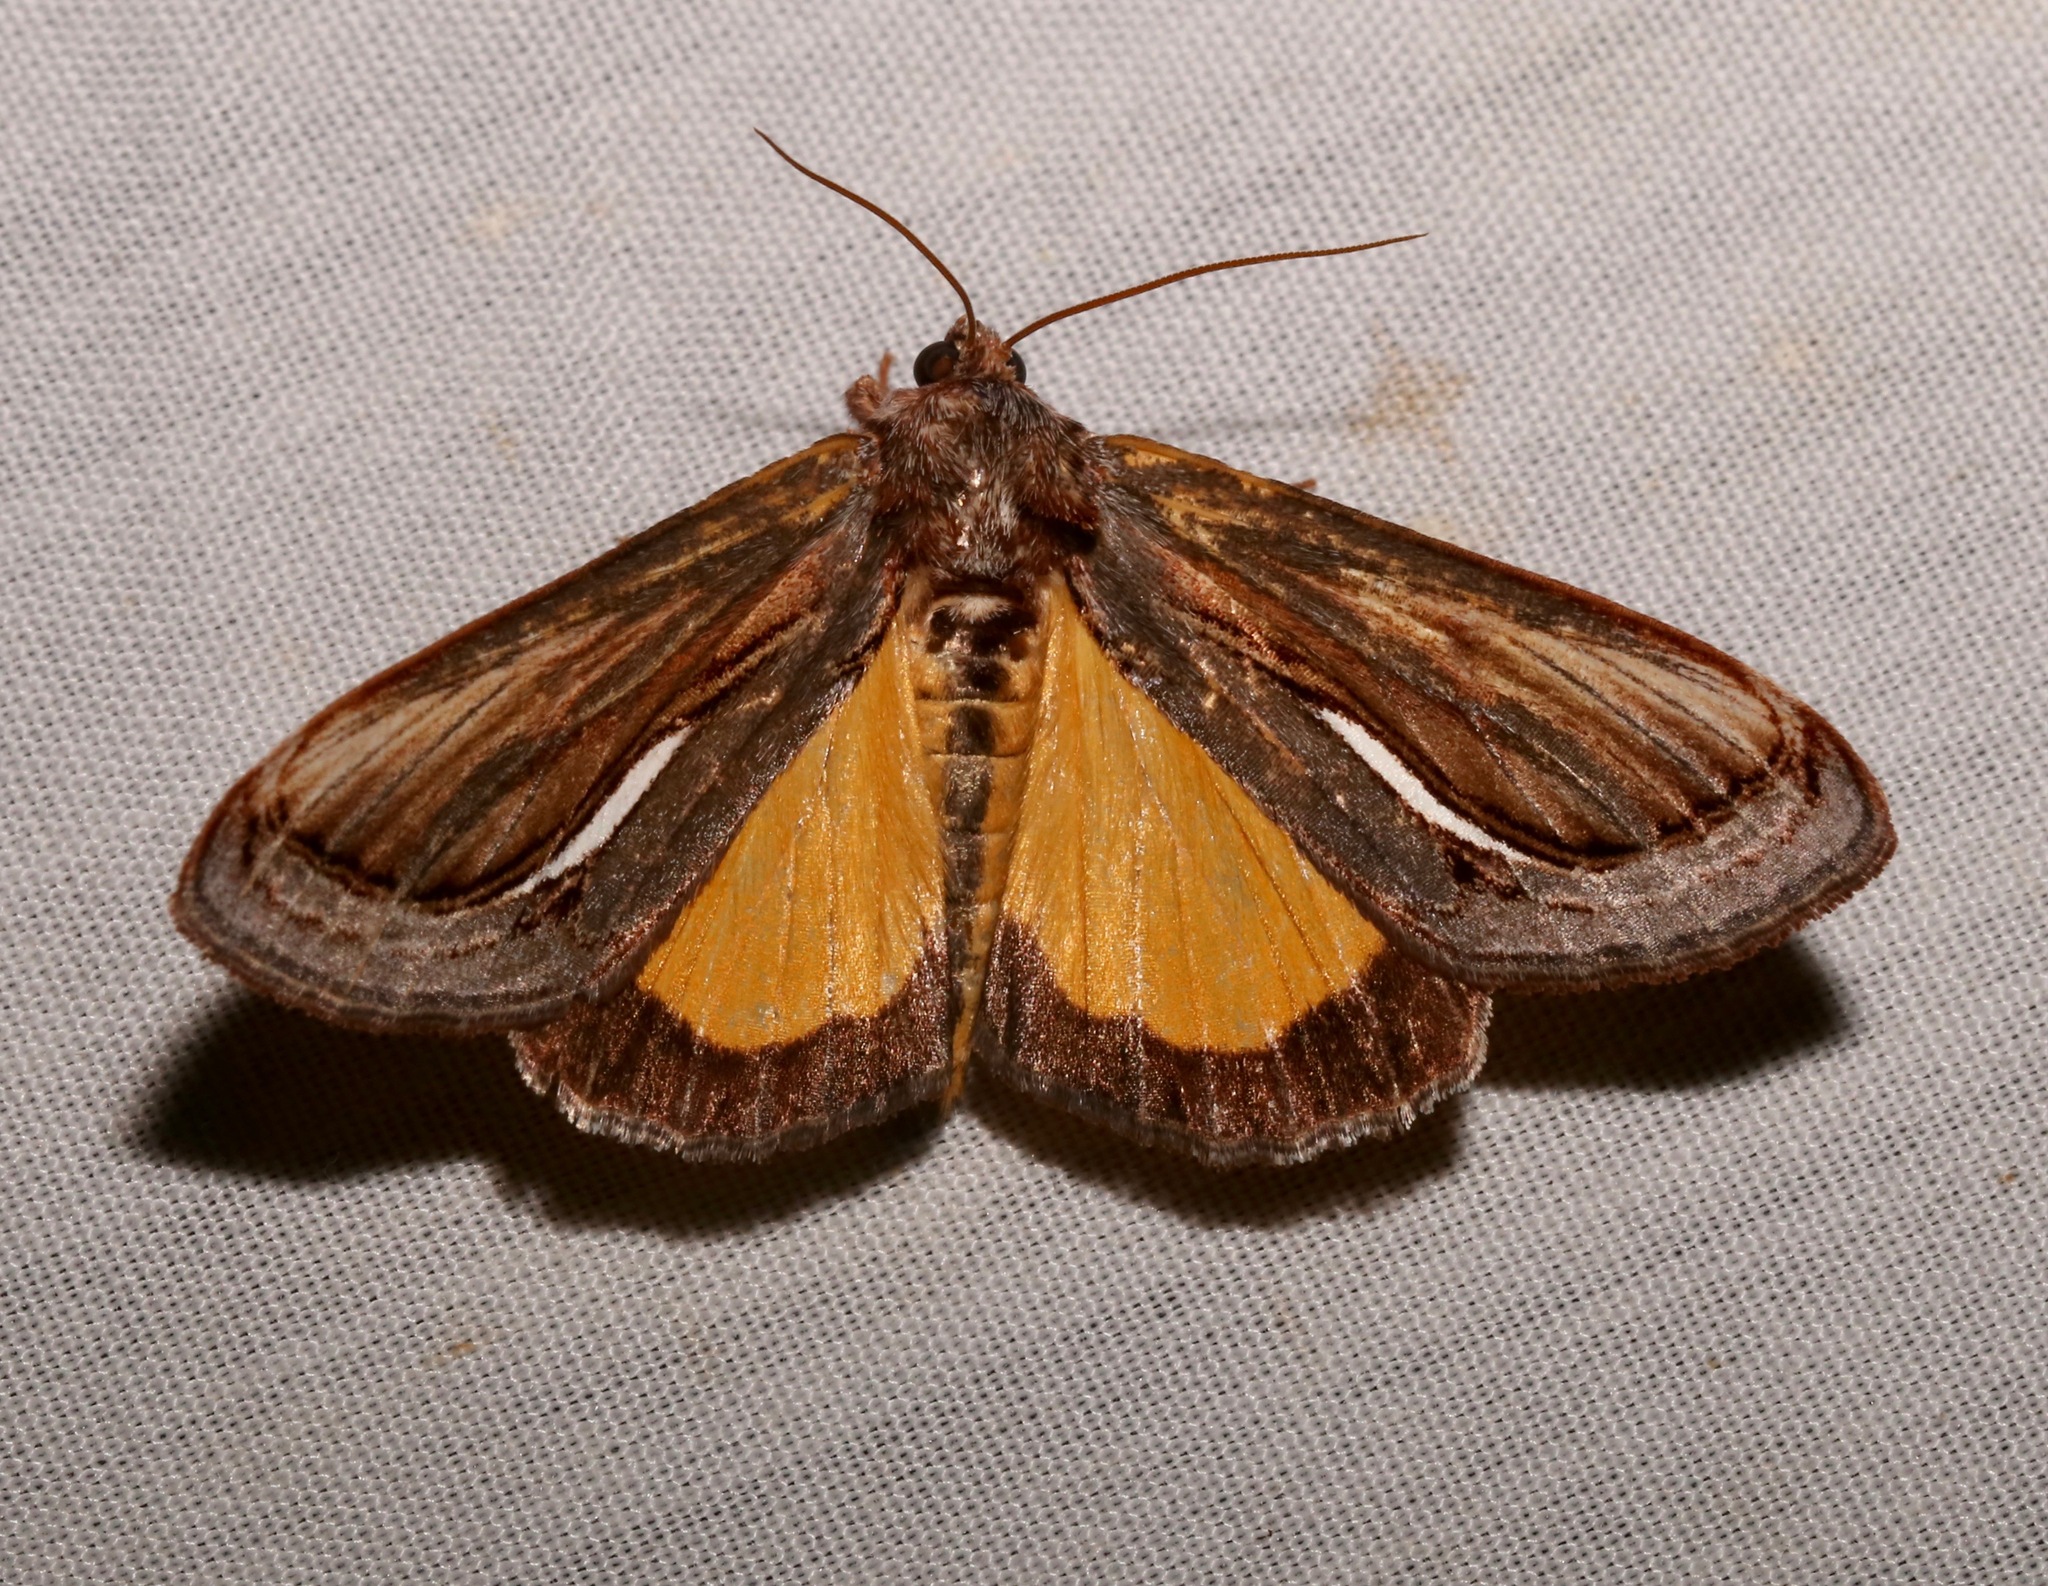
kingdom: Animalia
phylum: Arthropoda
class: Insecta
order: Lepidoptera
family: Noctuidae
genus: Gerrodes
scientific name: Gerrodes minatea
